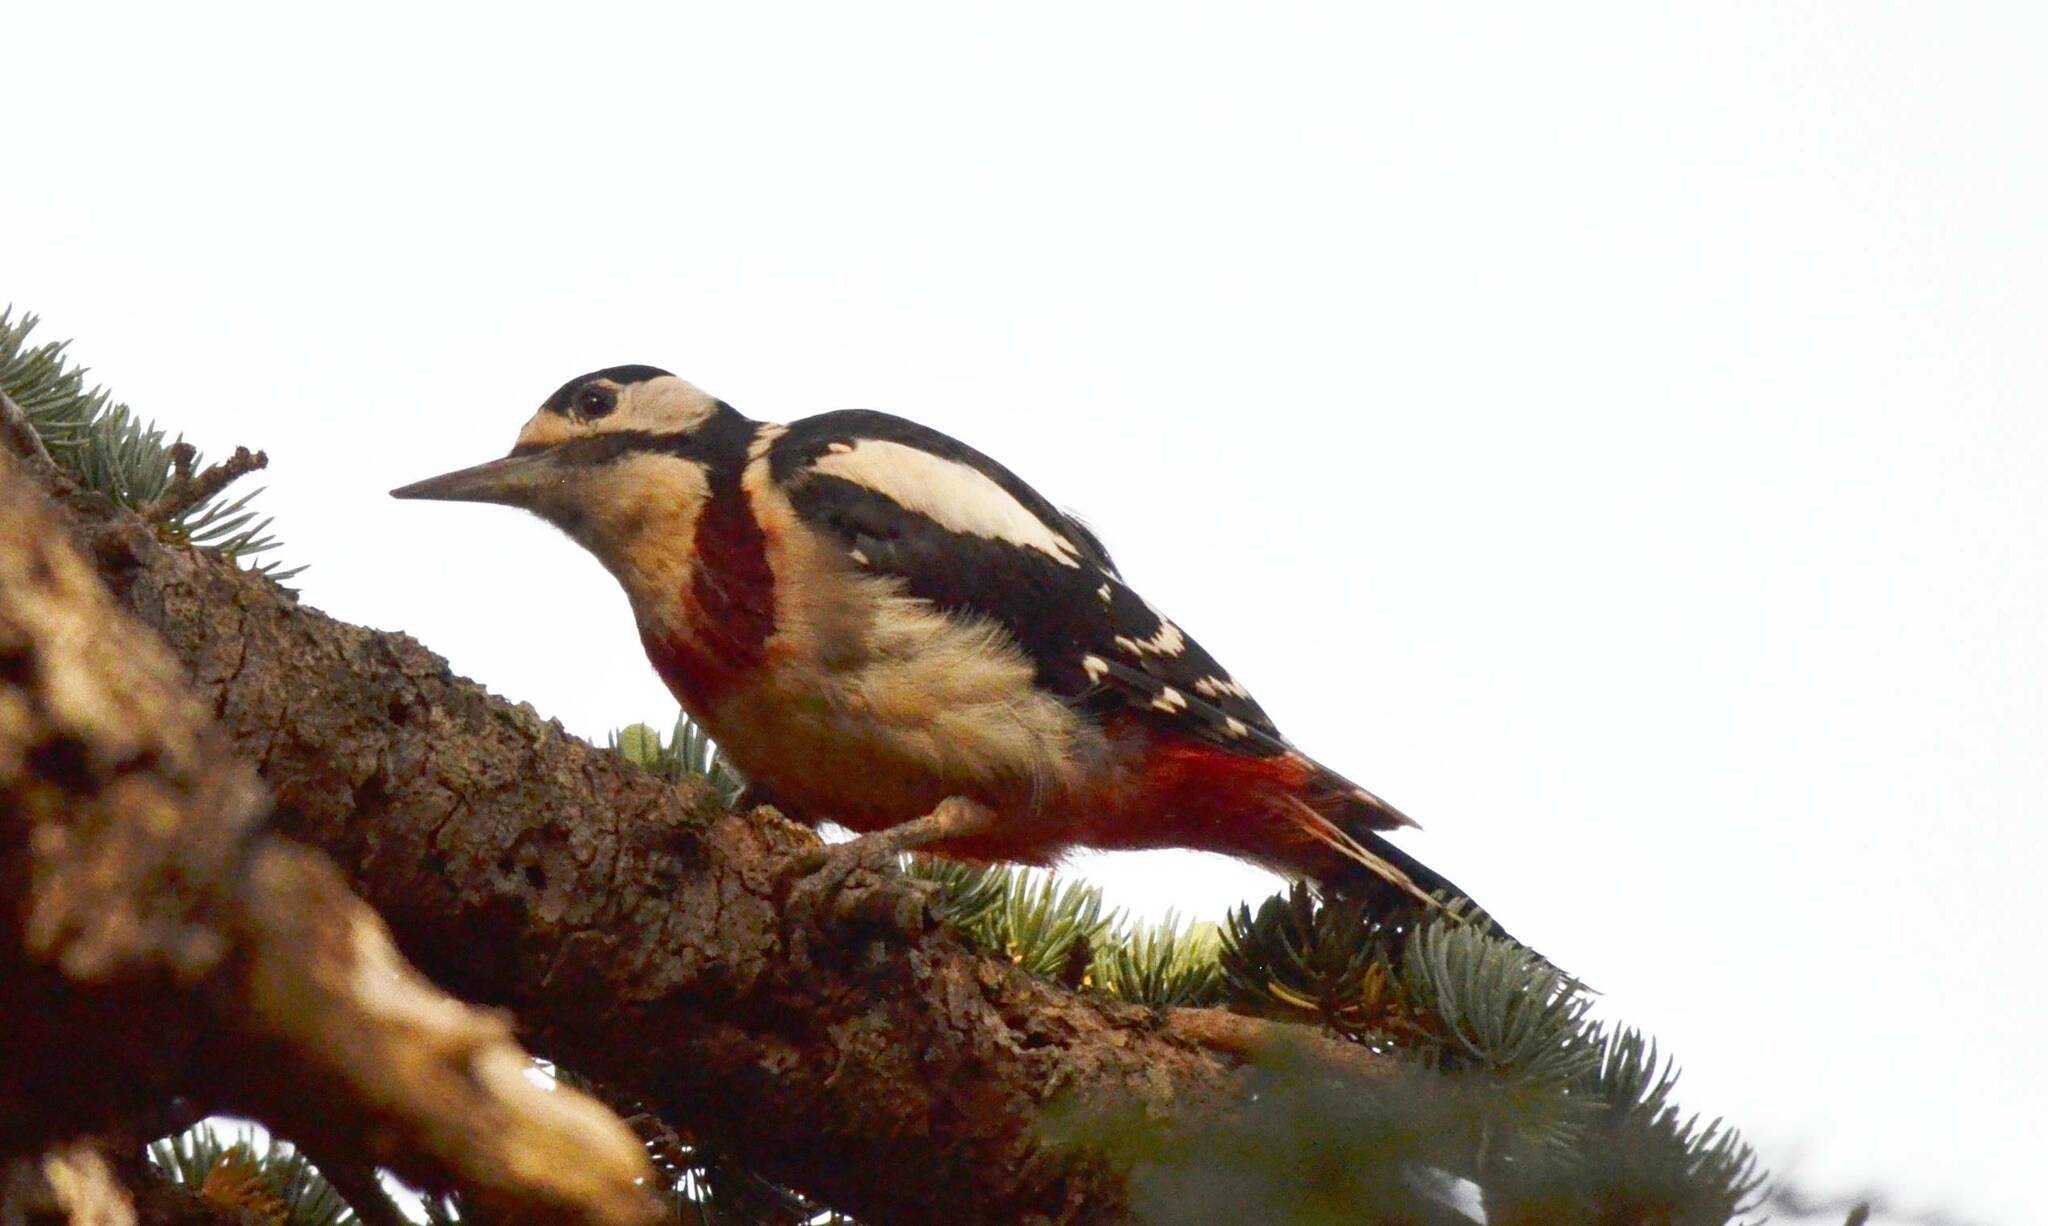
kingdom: Animalia
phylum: Chordata
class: Aves
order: Piciformes
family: Picidae
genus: Dendrocopos
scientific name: Dendrocopos major
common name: Great spotted woodpecker
